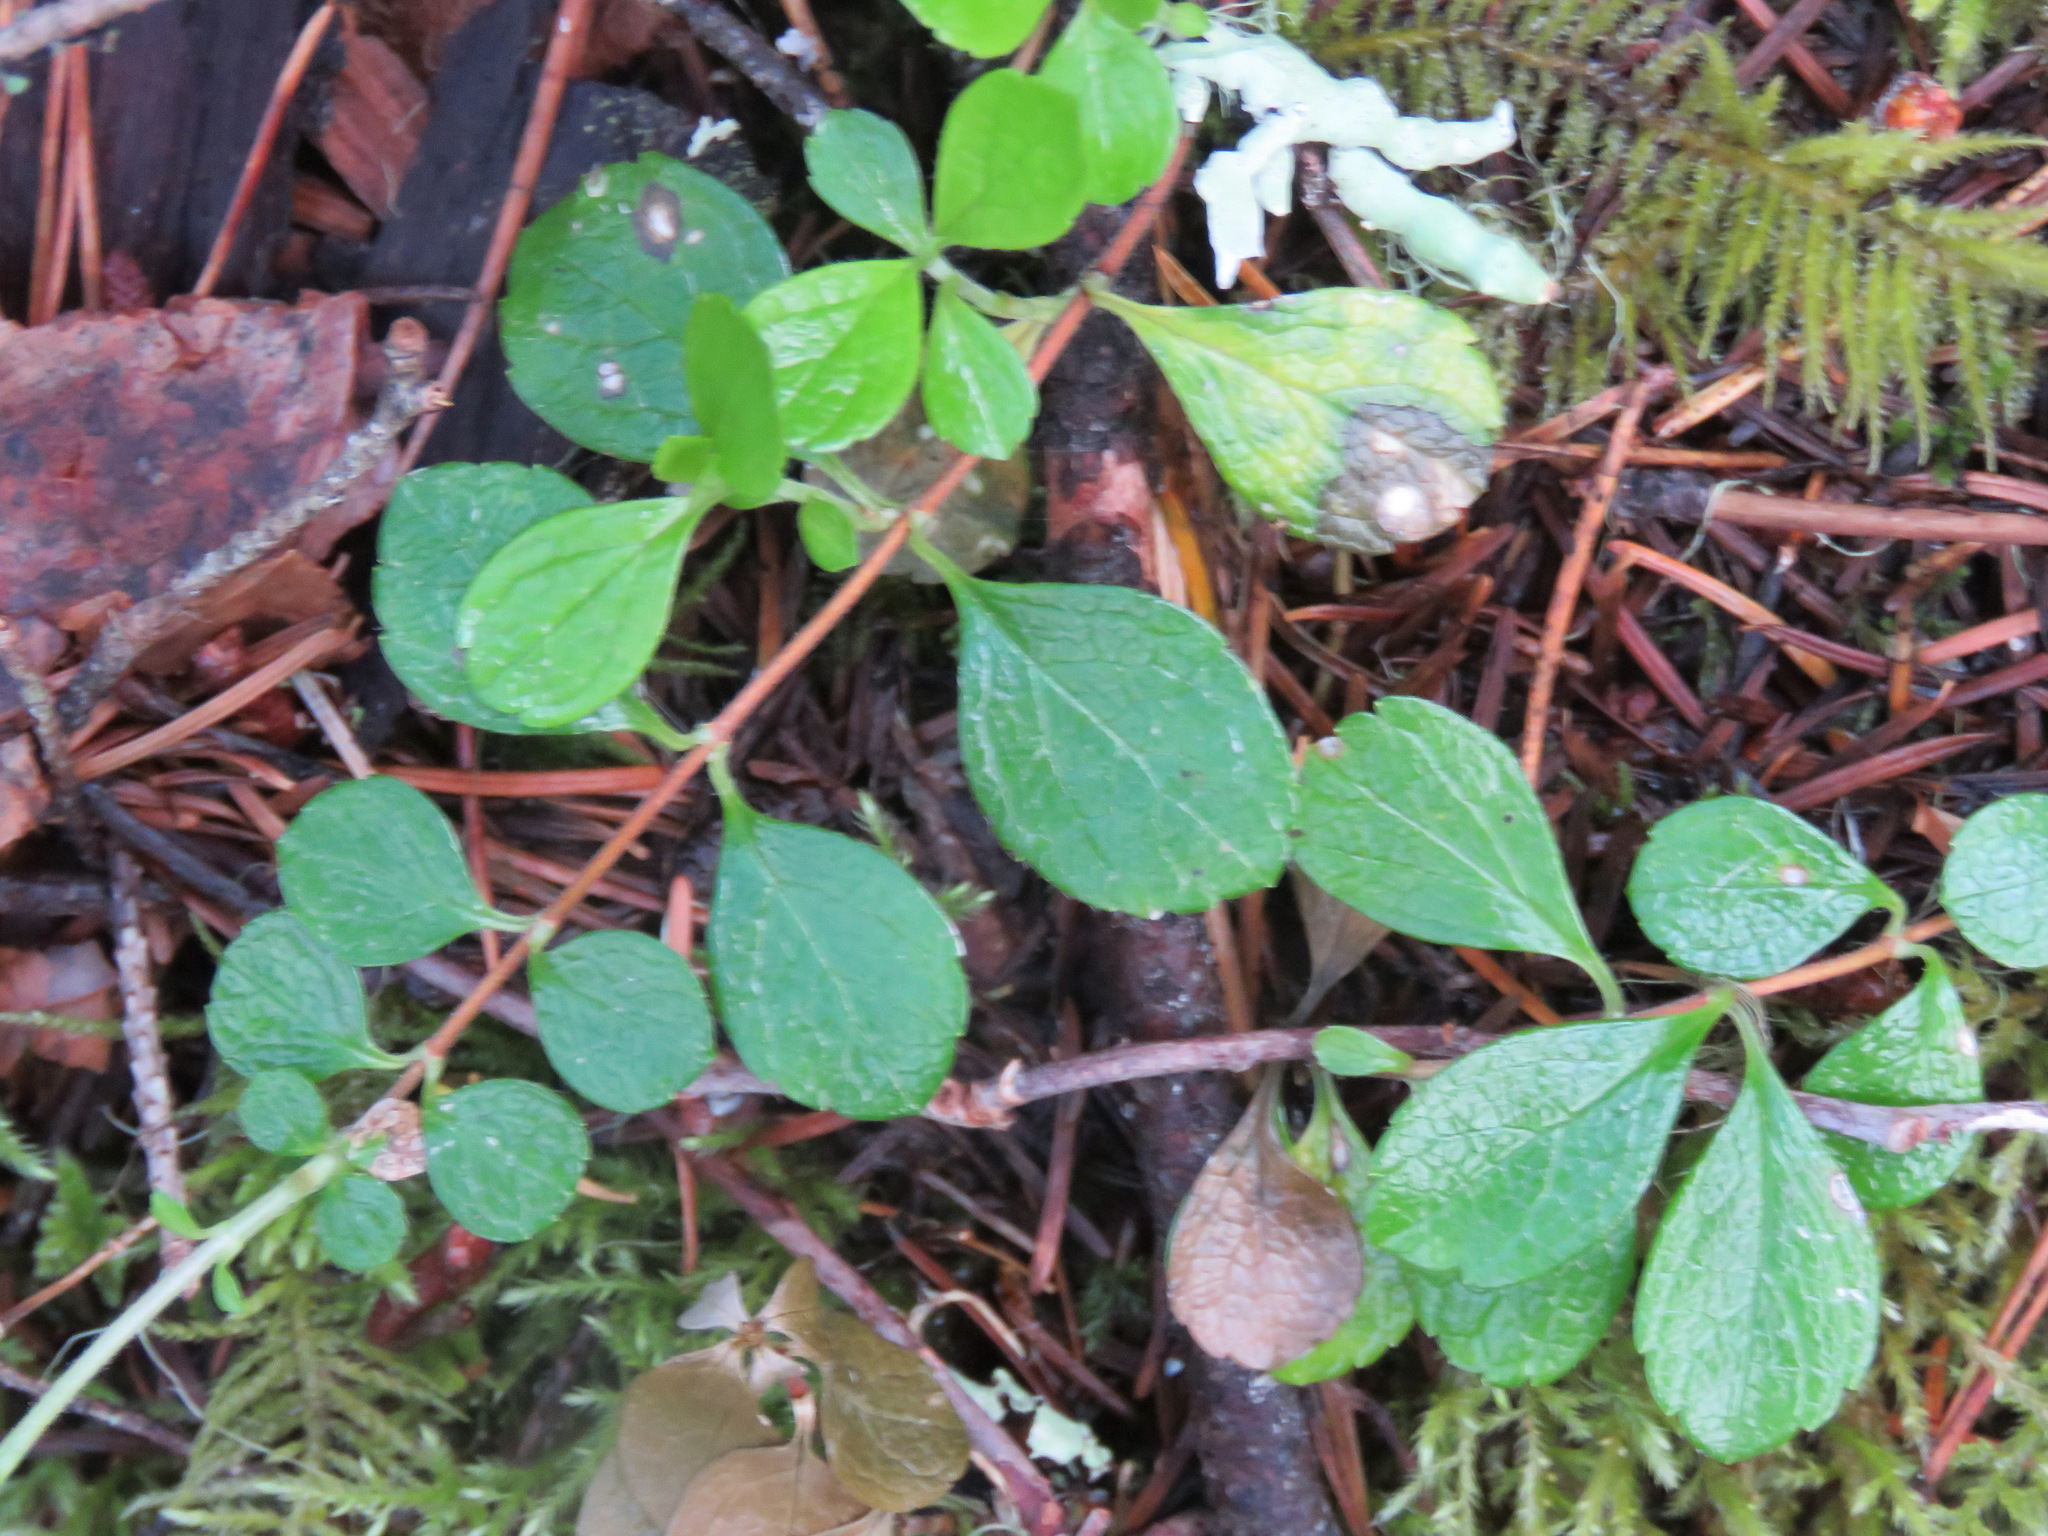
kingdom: Plantae
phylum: Tracheophyta
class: Magnoliopsida
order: Dipsacales
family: Caprifoliaceae
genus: Linnaea
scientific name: Linnaea borealis
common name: Twinflower
